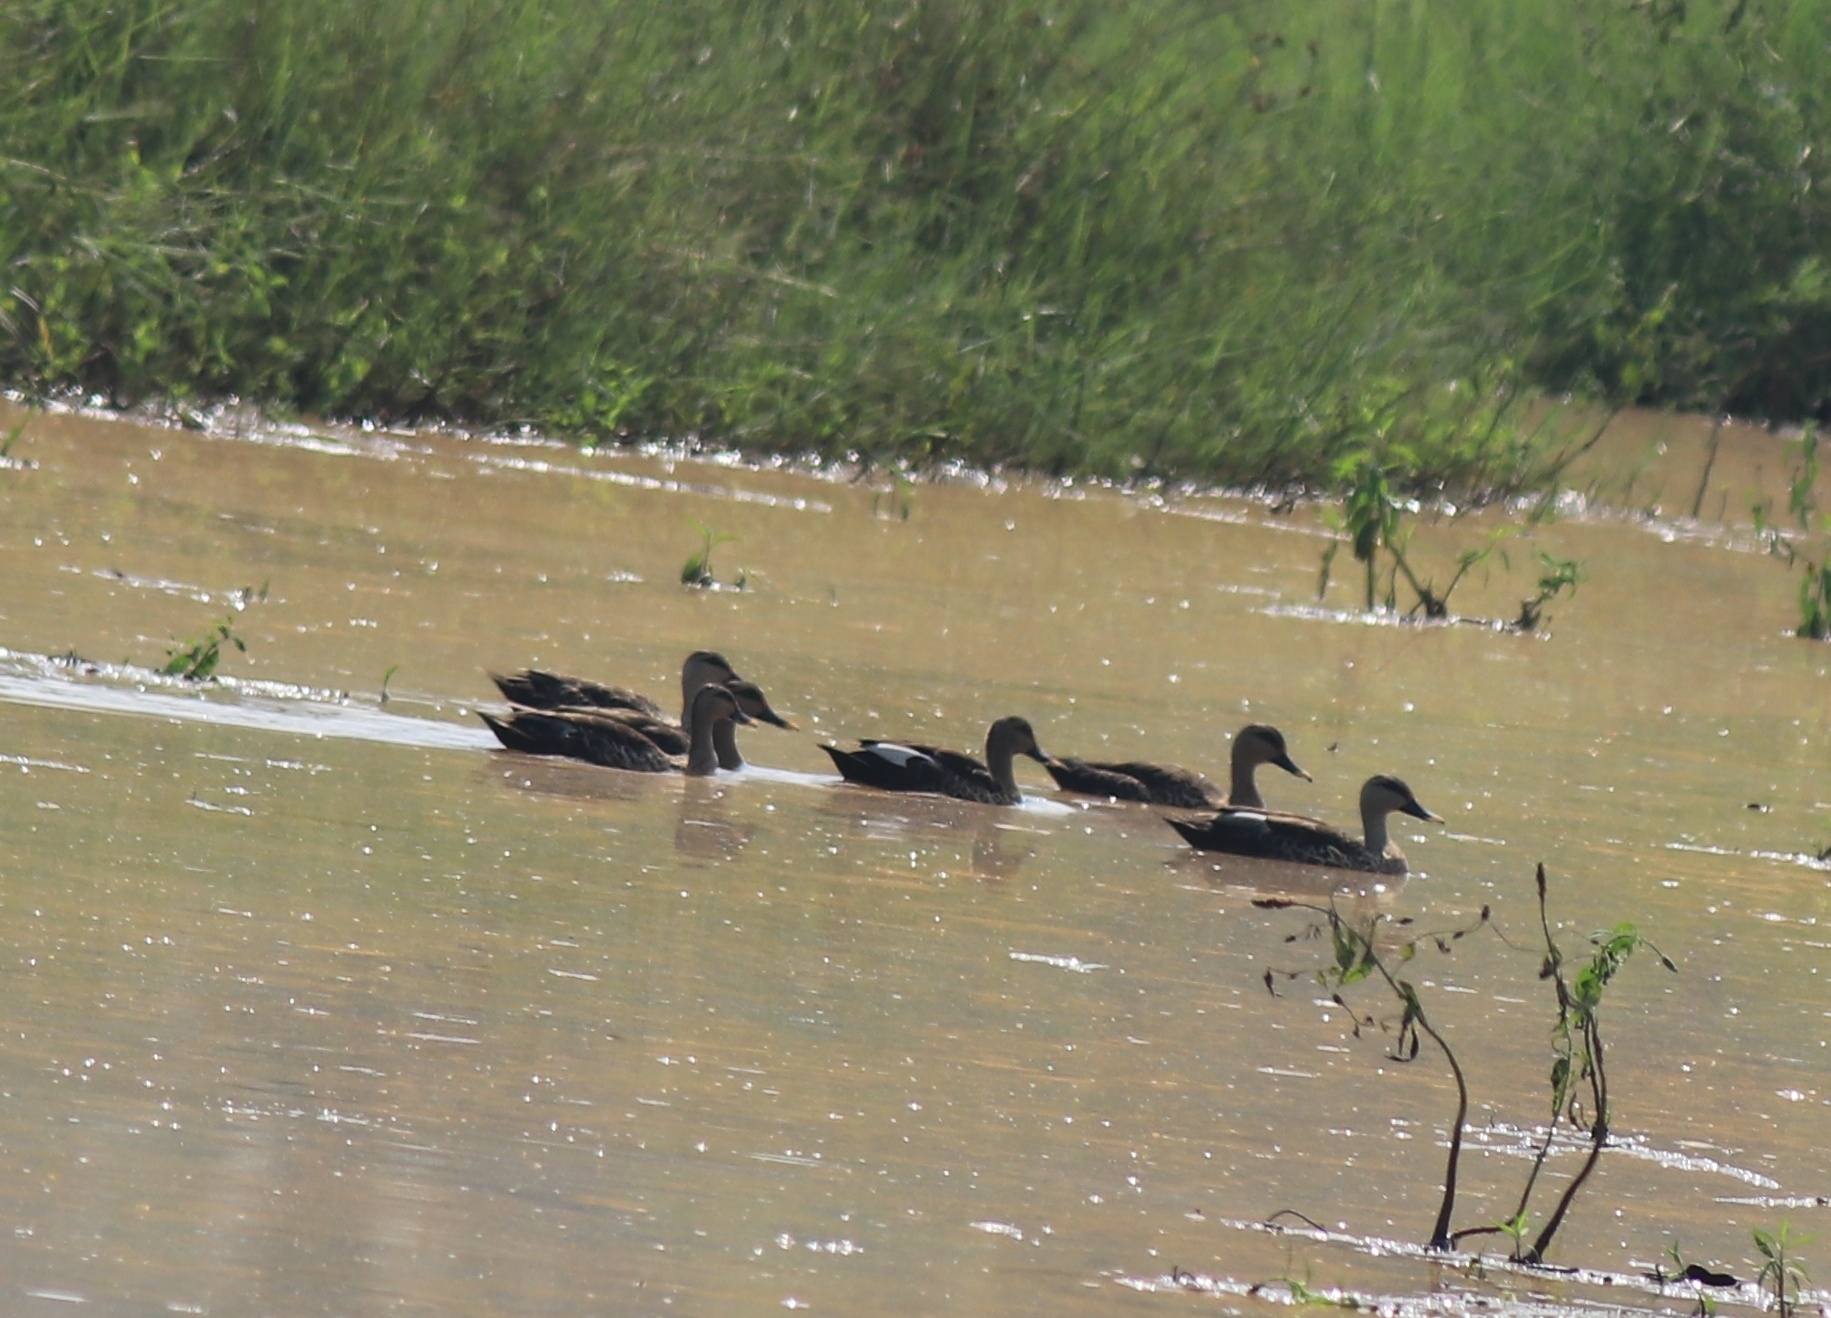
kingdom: Animalia
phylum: Chordata
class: Aves
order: Anseriformes
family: Anatidae
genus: Anas
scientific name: Anas poecilorhyncha
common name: Indian spot-billed duck
